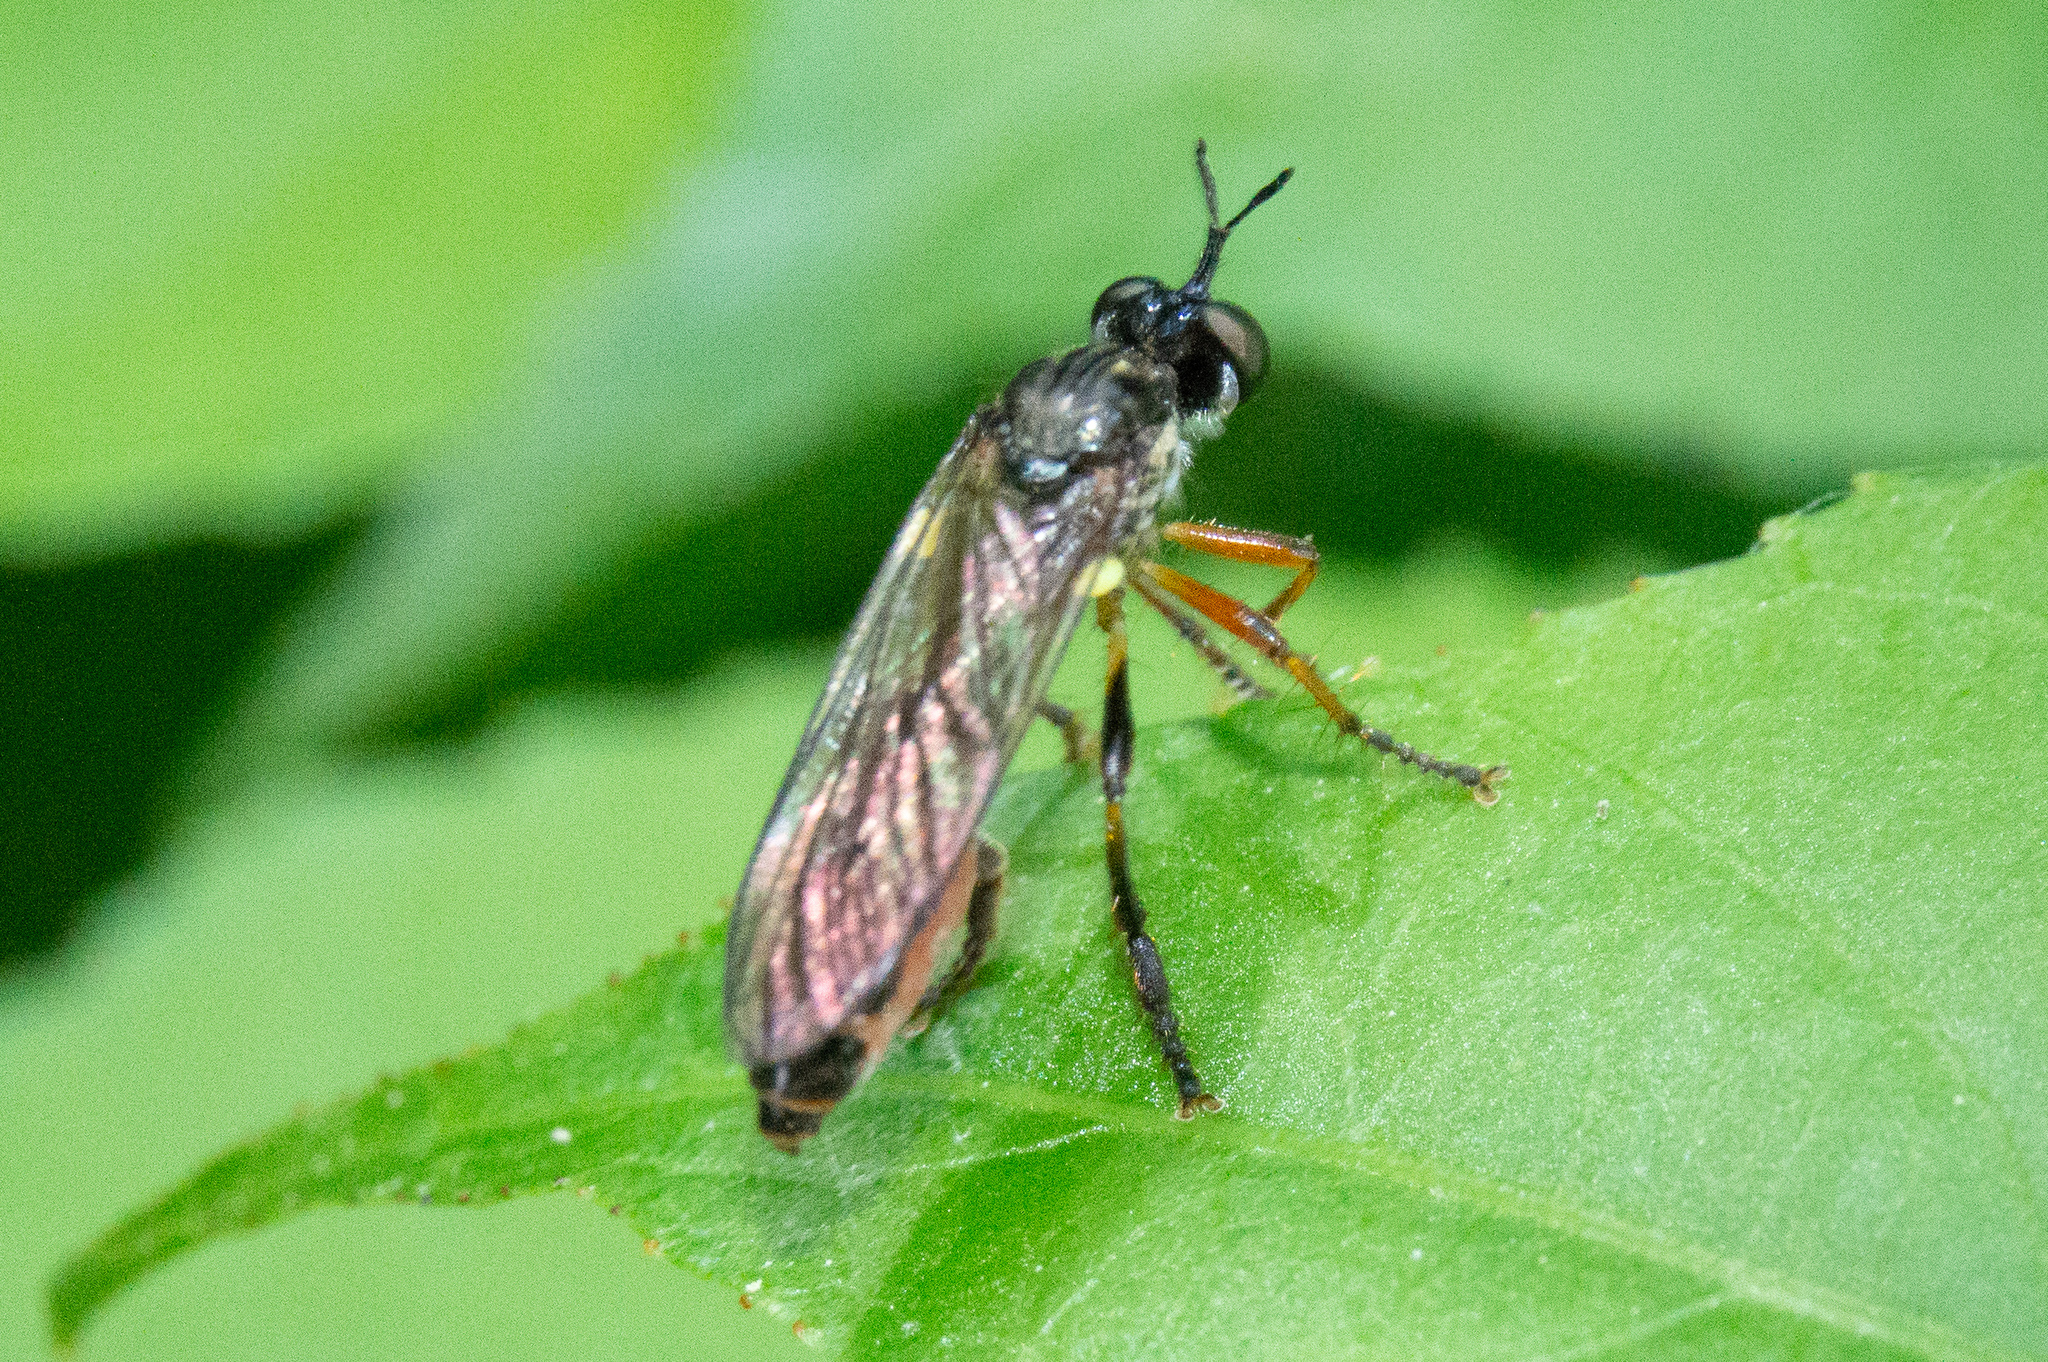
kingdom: Animalia
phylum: Arthropoda
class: Insecta
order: Diptera
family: Asilidae
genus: Dioctria
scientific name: Dioctria hyalipennis
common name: Stripe-legged robberfly
